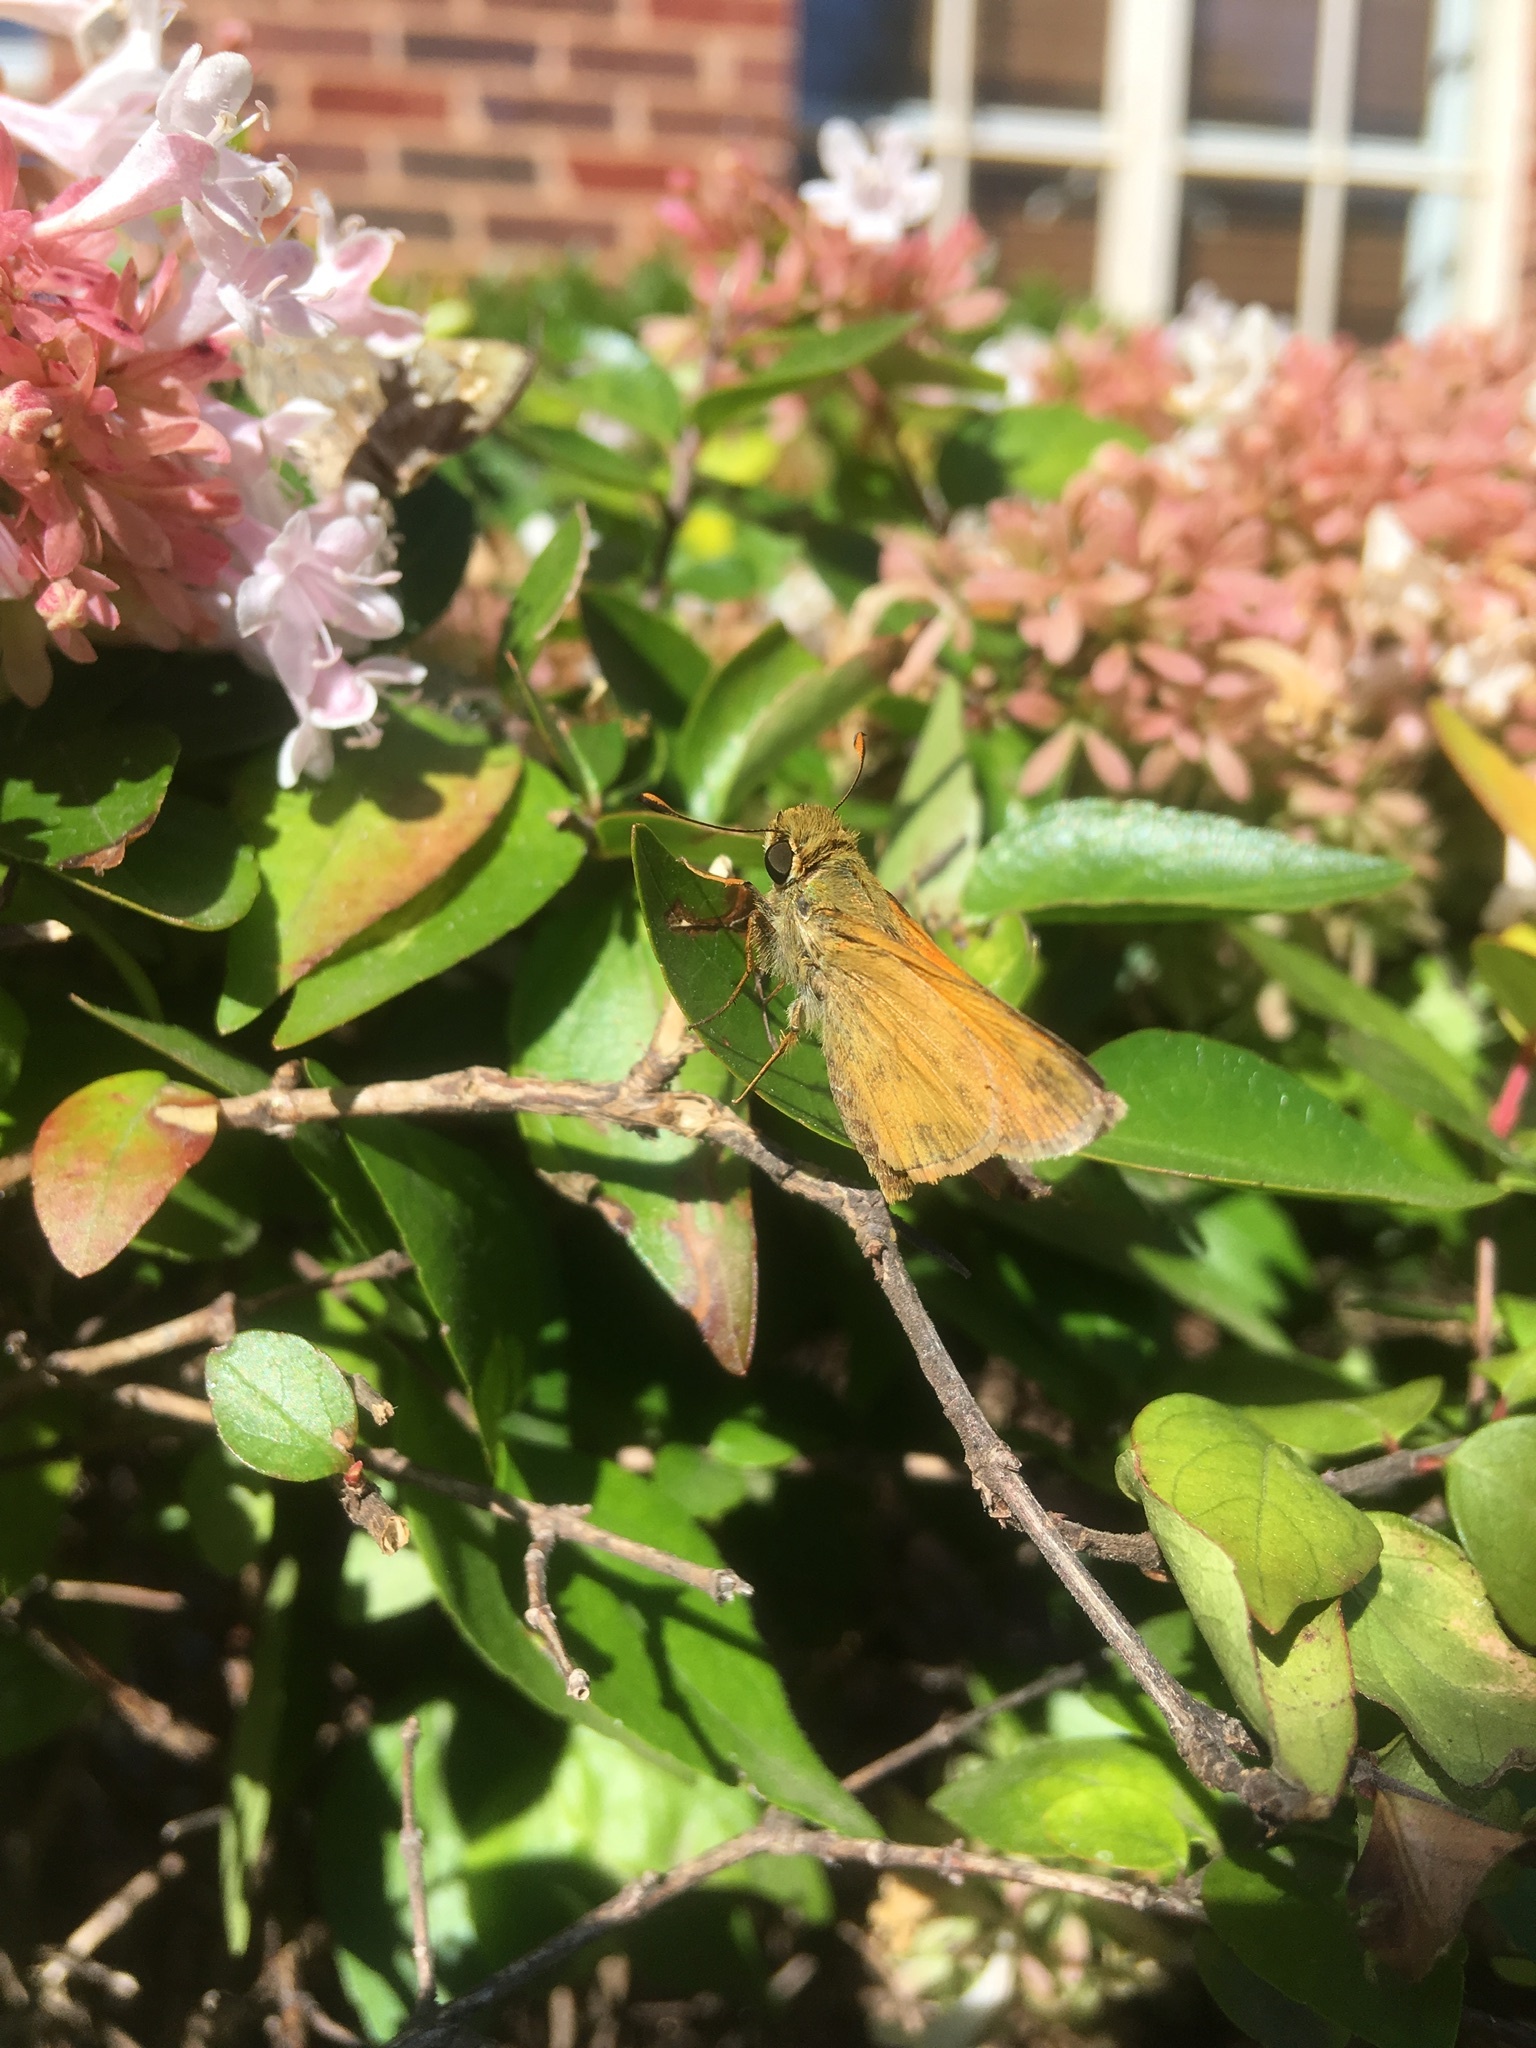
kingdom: Animalia
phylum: Arthropoda
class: Insecta
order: Lepidoptera
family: Hesperiidae
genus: Atalopedes
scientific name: Atalopedes
